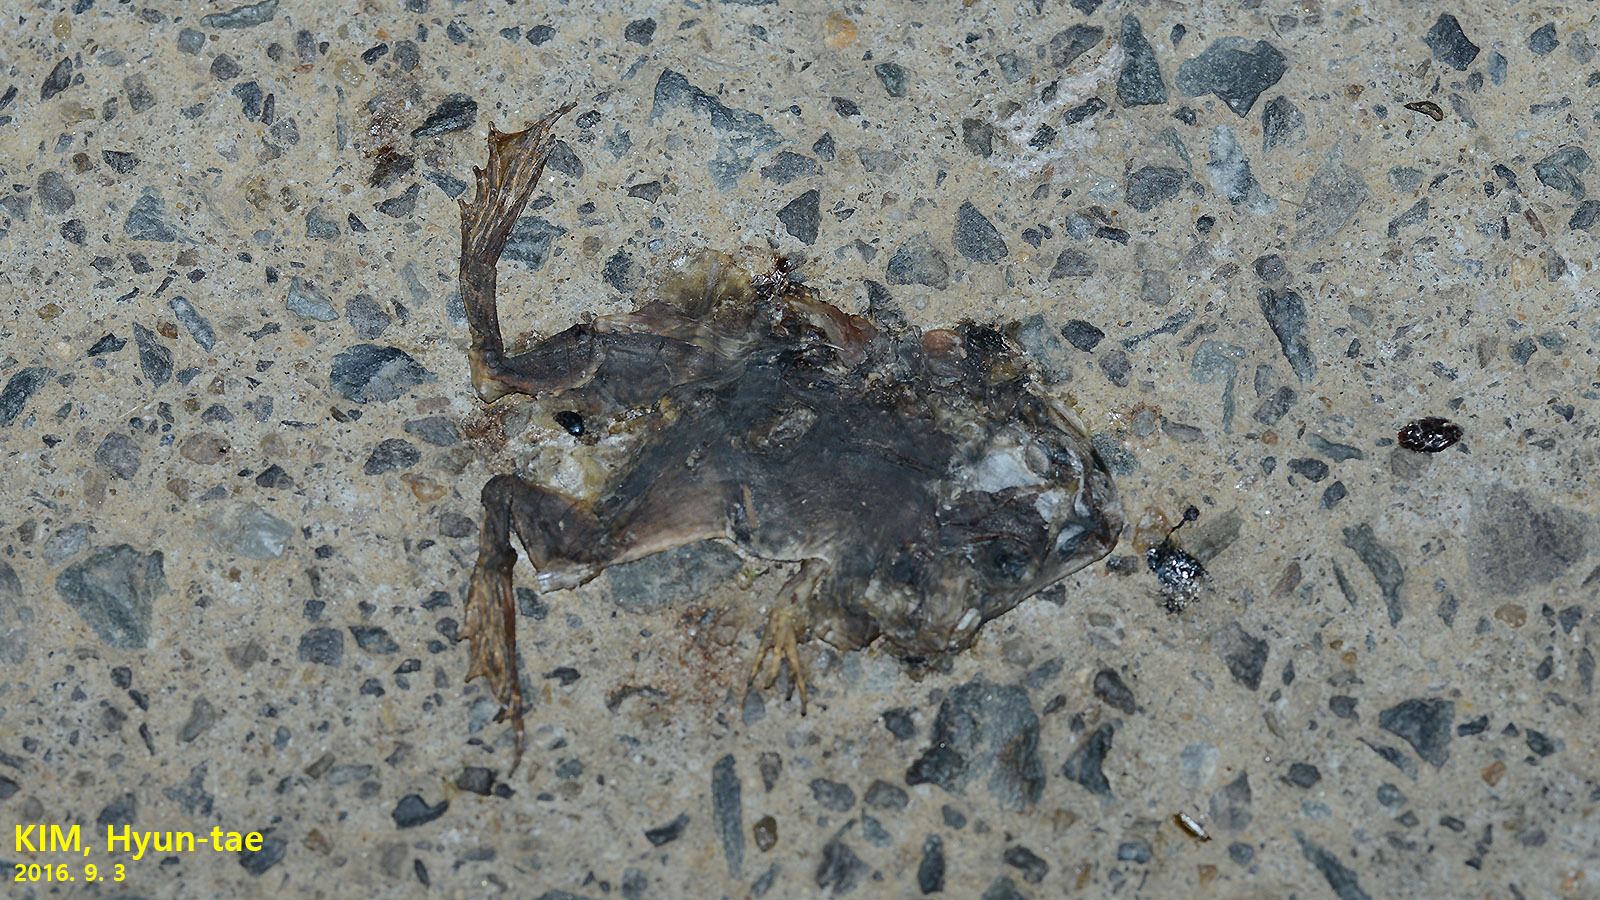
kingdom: Animalia
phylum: Chordata
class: Amphibia
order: Anura
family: Ranidae
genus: Lithobates
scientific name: Lithobates catesbeianus
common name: American bullfrog
